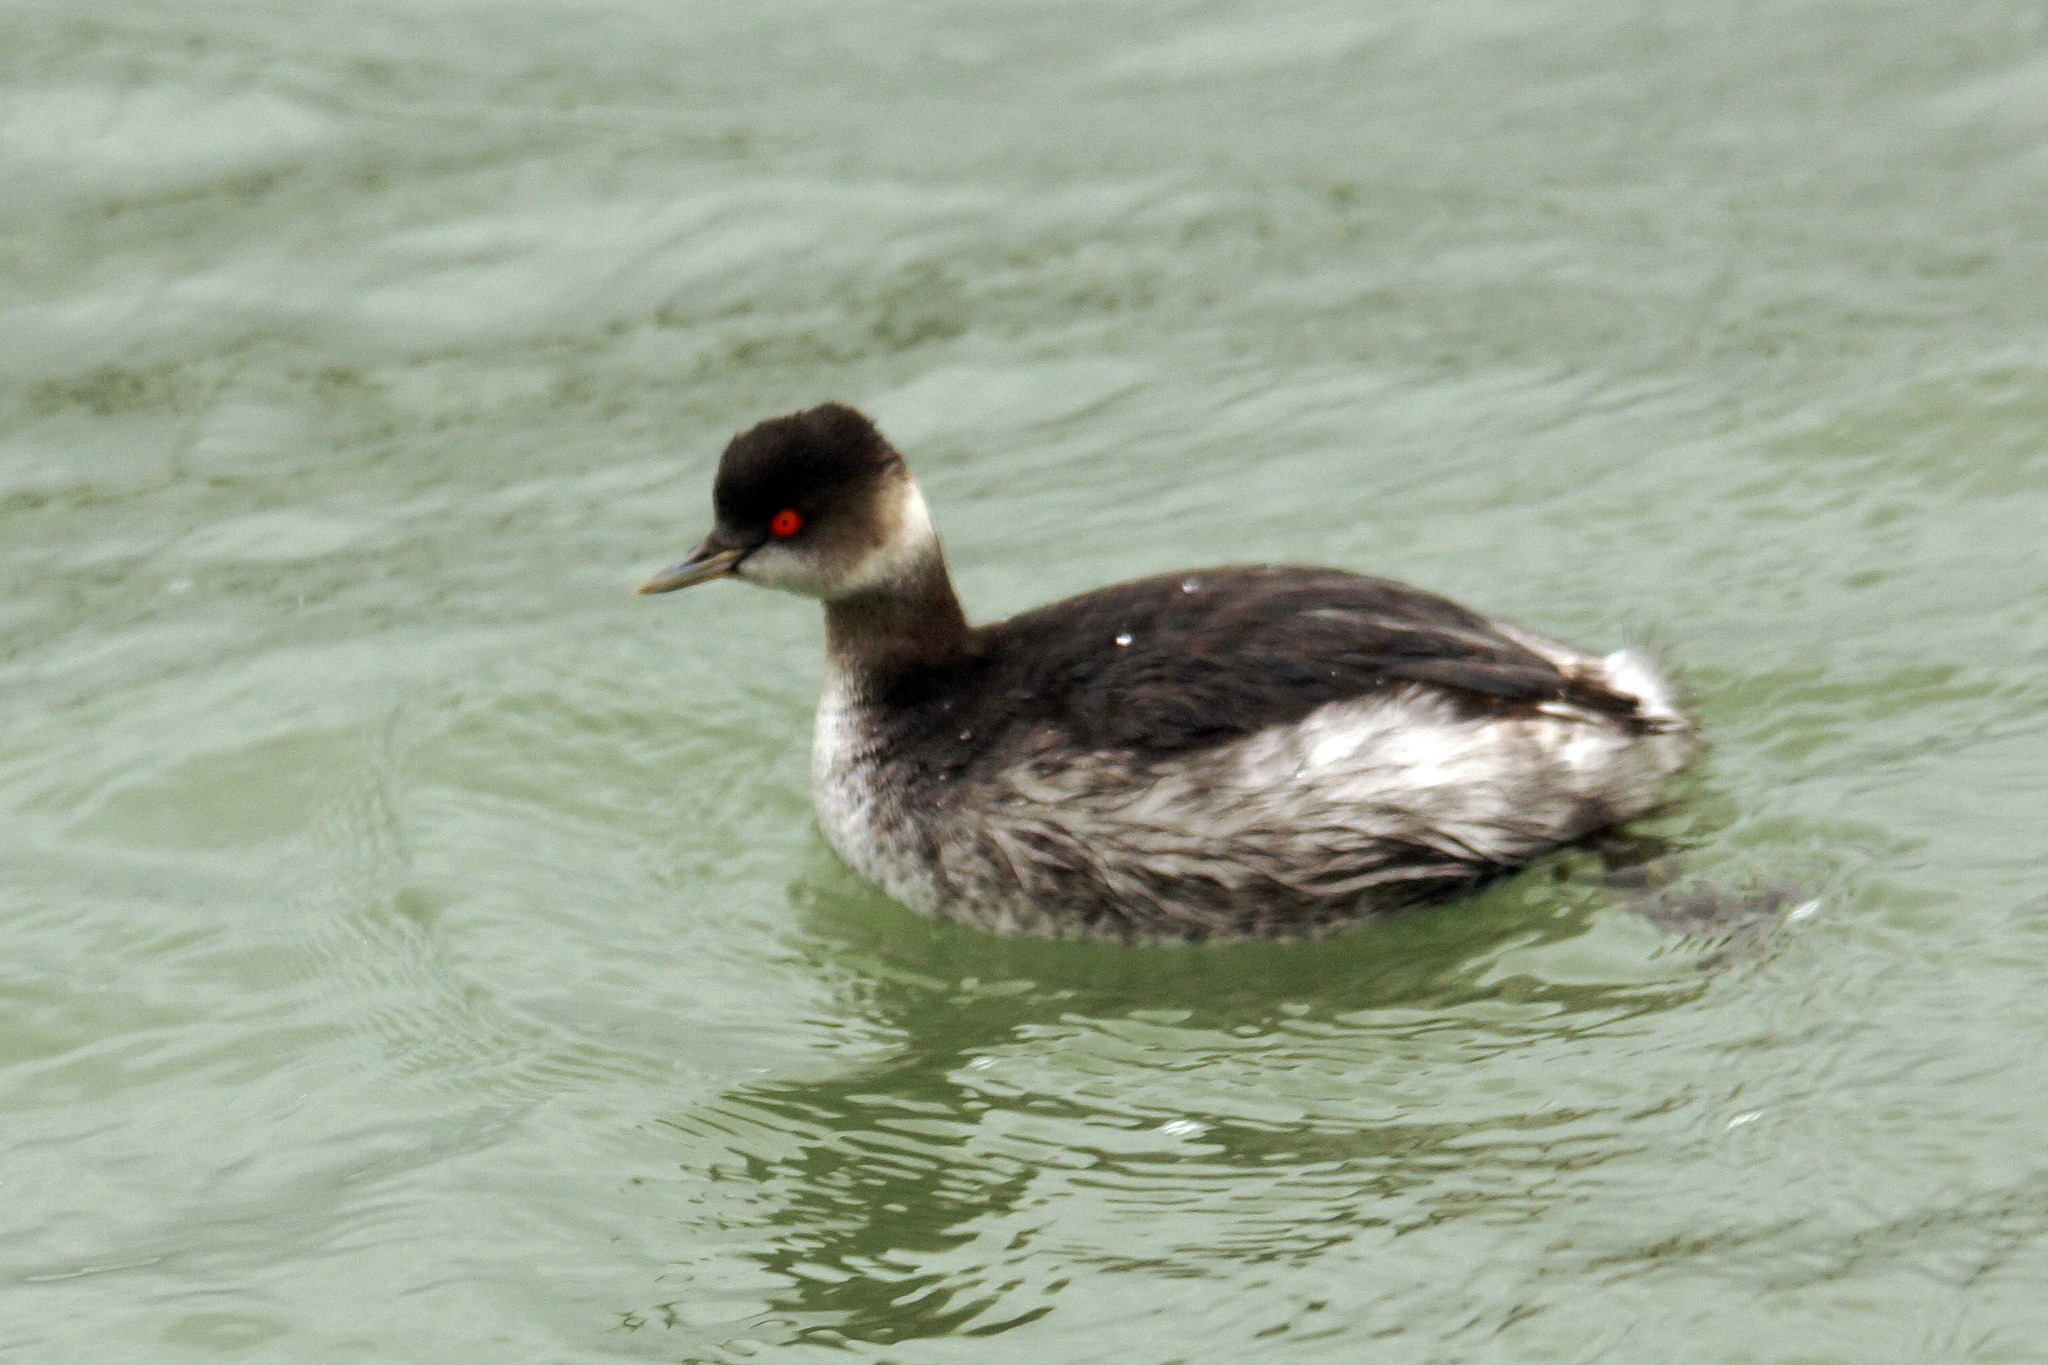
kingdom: Animalia
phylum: Chordata
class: Aves
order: Podicipediformes
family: Podicipedidae
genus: Podiceps
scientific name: Podiceps nigricollis
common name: Black-necked grebe
